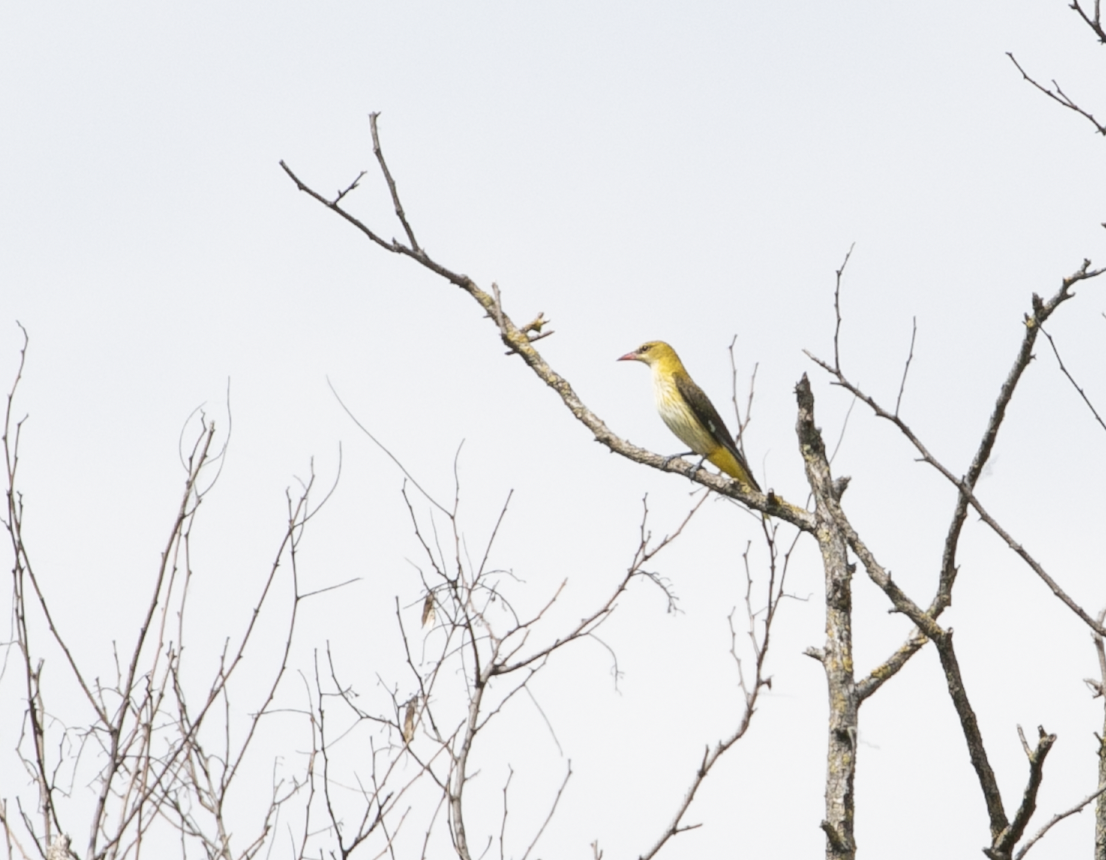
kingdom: Animalia
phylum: Chordata
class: Aves
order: Passeriformes
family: Oriolidae
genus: Oriolus
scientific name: Oriolus oriolus
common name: Eurasian golden oriole
